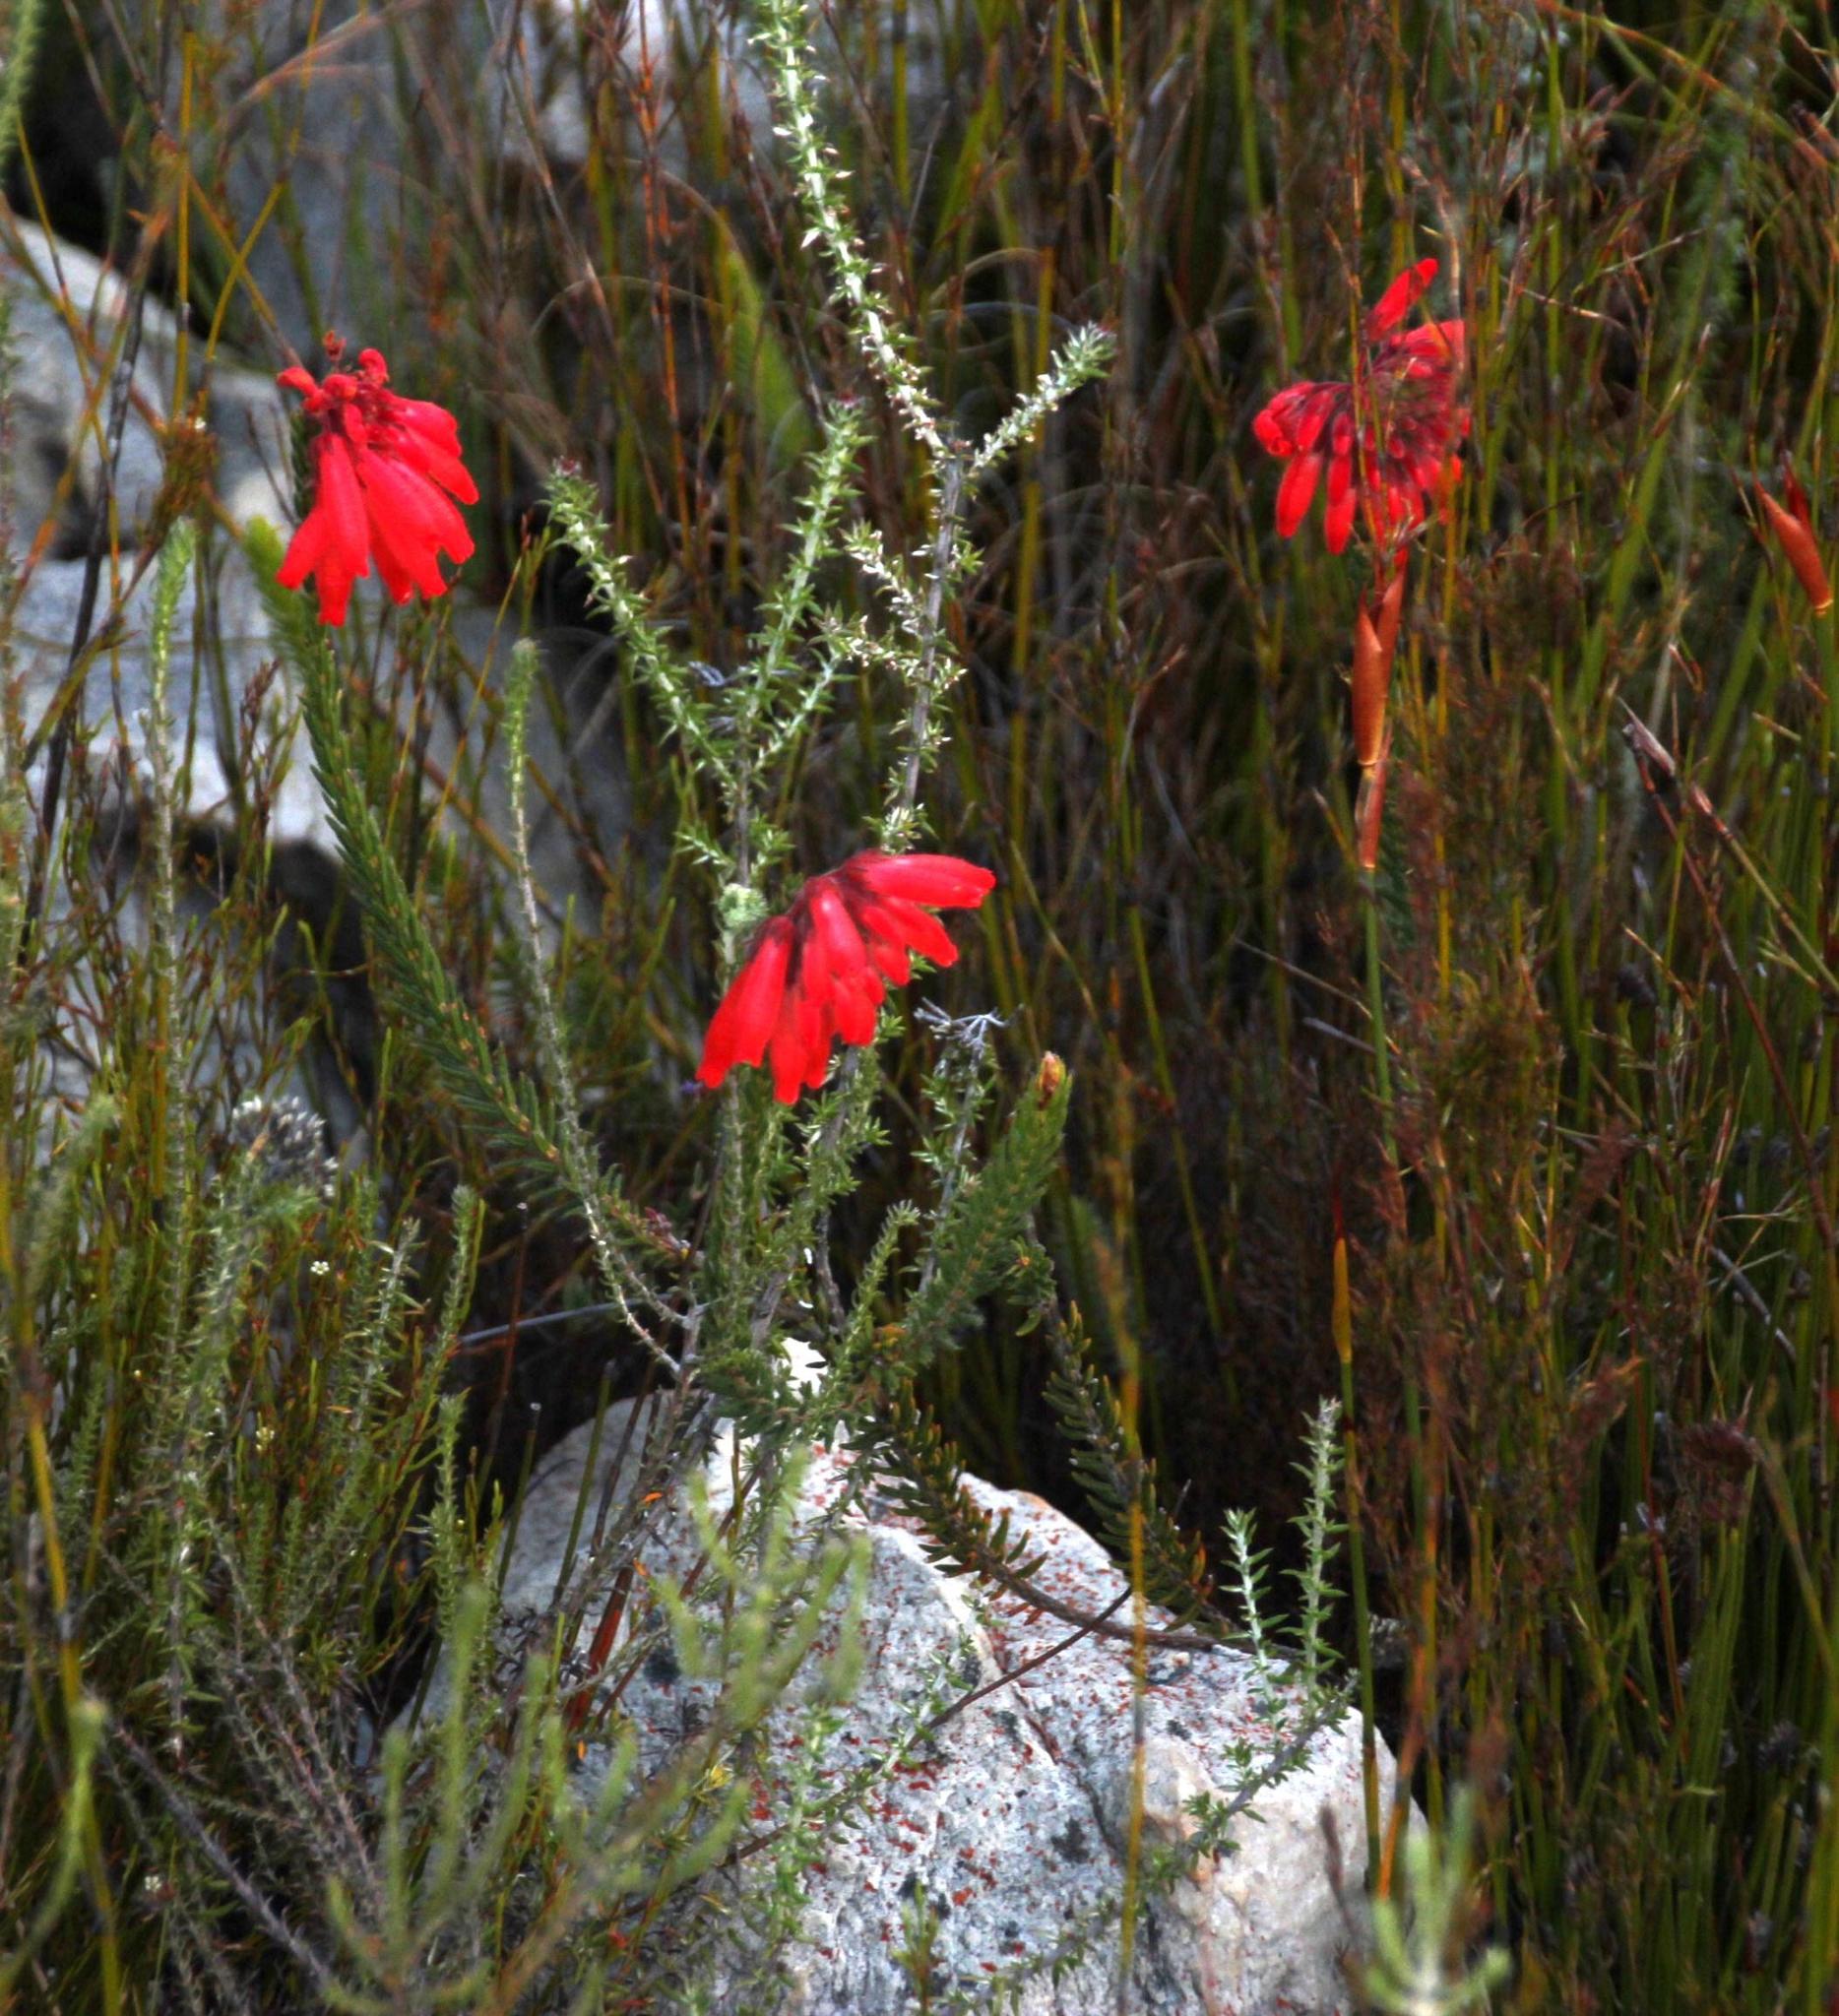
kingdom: Plantae
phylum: Tracheophyta
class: Magnoliopsida
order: Ericales
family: Ericaceae
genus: Erica
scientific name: Erica cerinthoides
